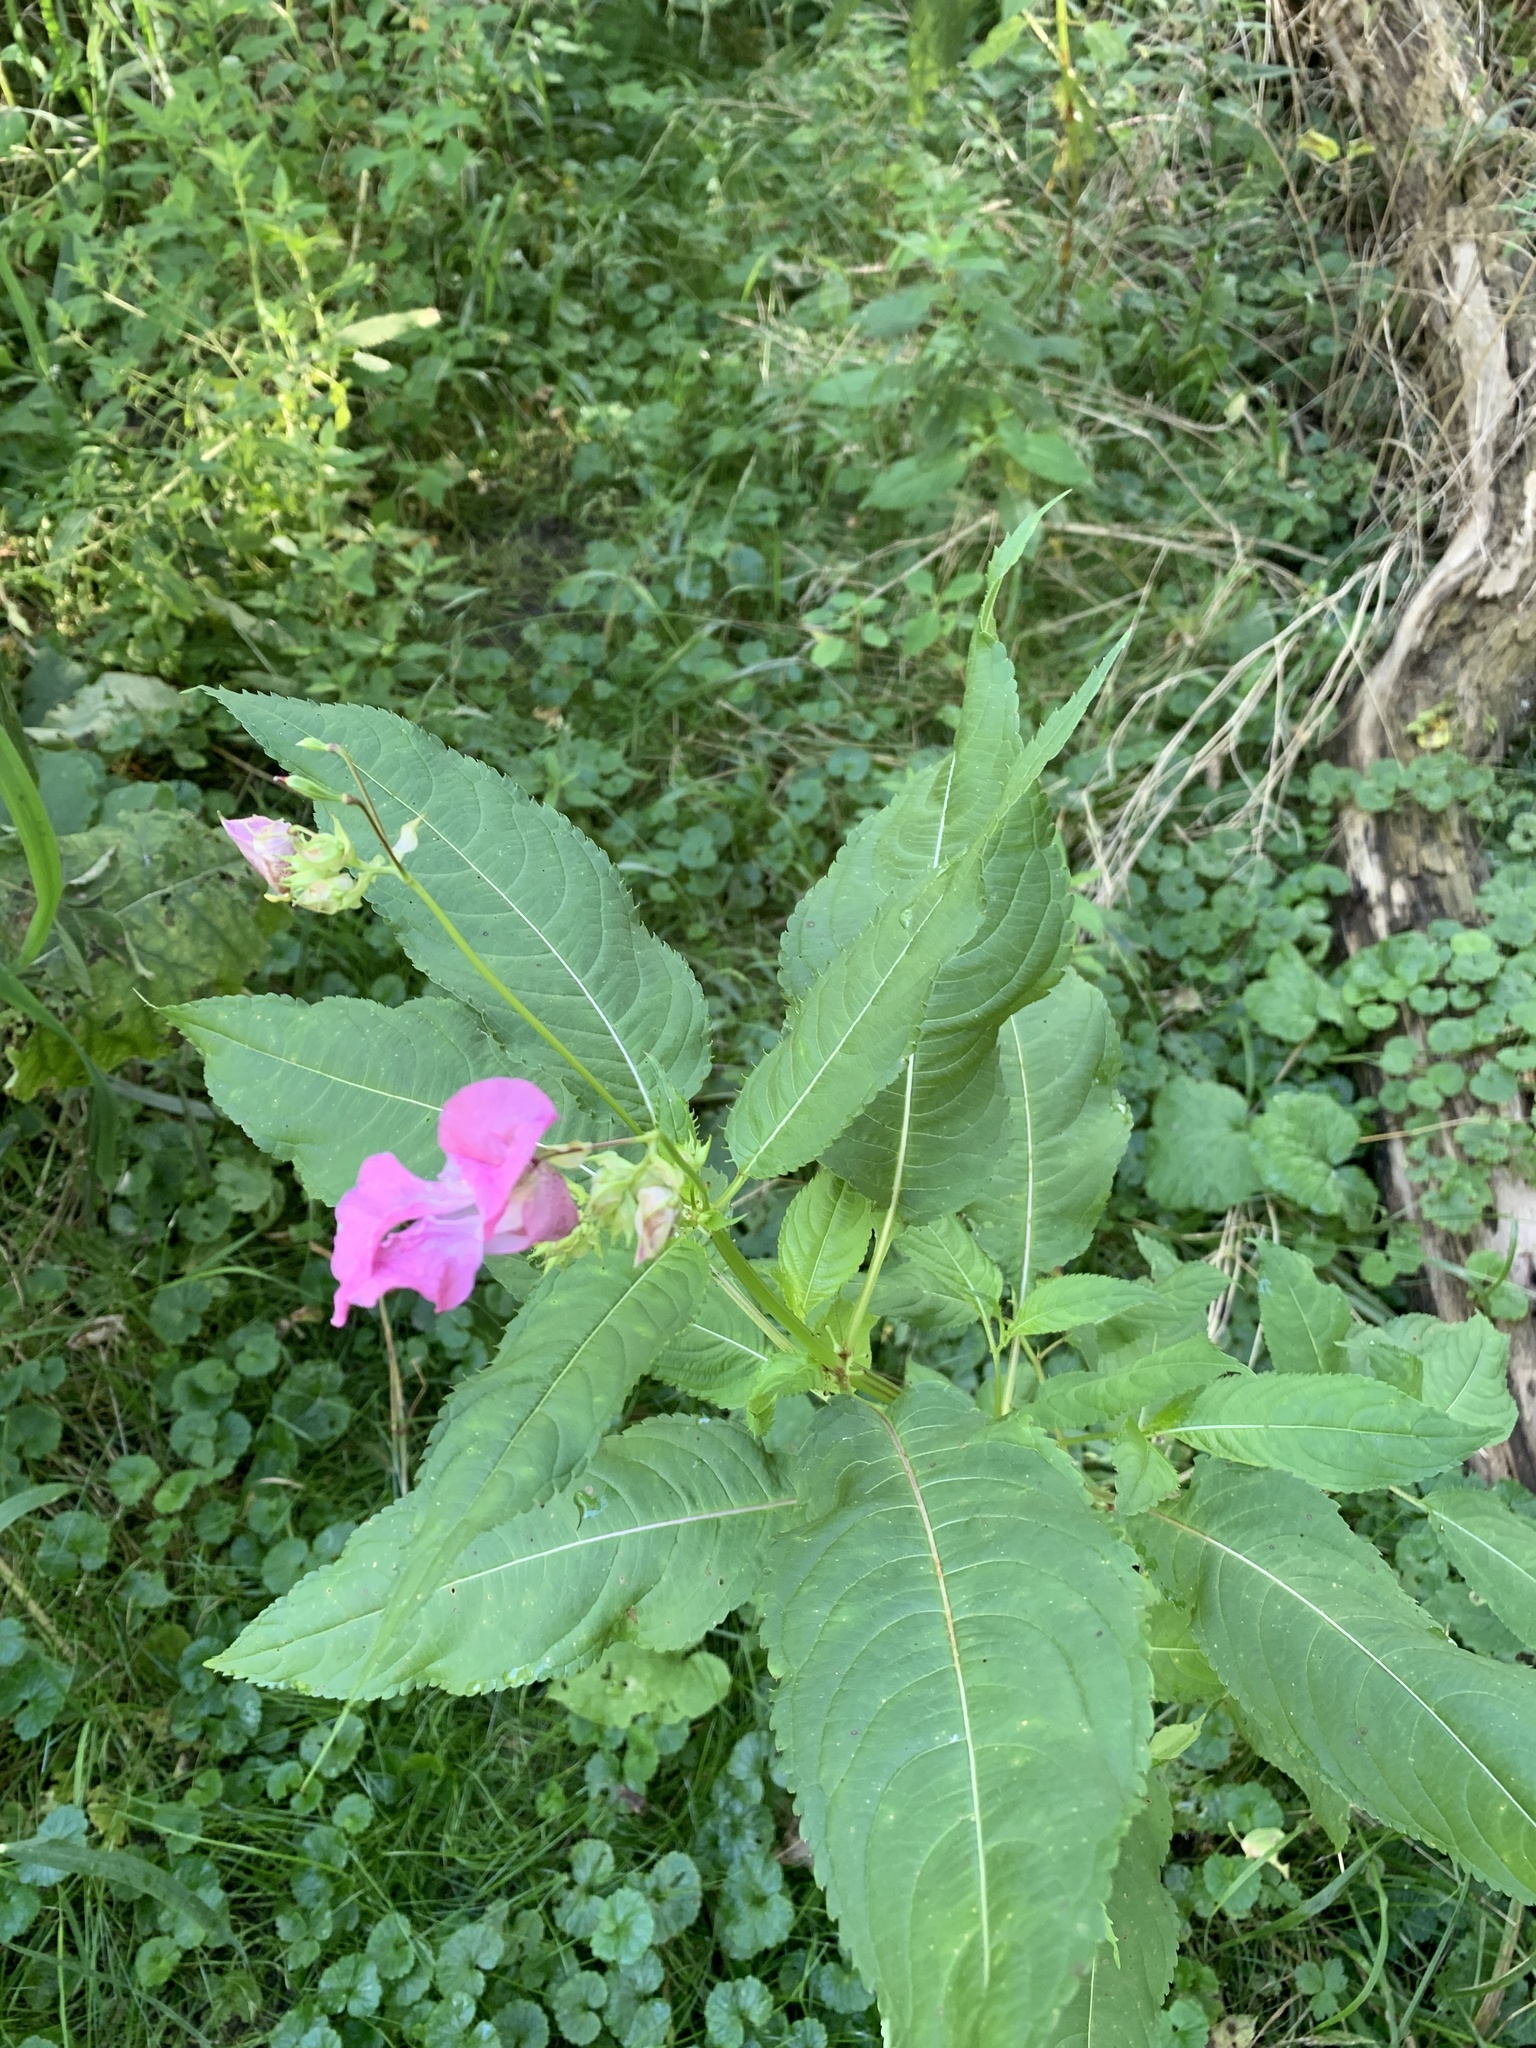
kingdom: Plantae
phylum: Tracheophyta
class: Magnoliopsida
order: Ericales
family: Balsaminaceae
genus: Impatiens
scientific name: Impatiens glandulifera
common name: Himalayan balsam
